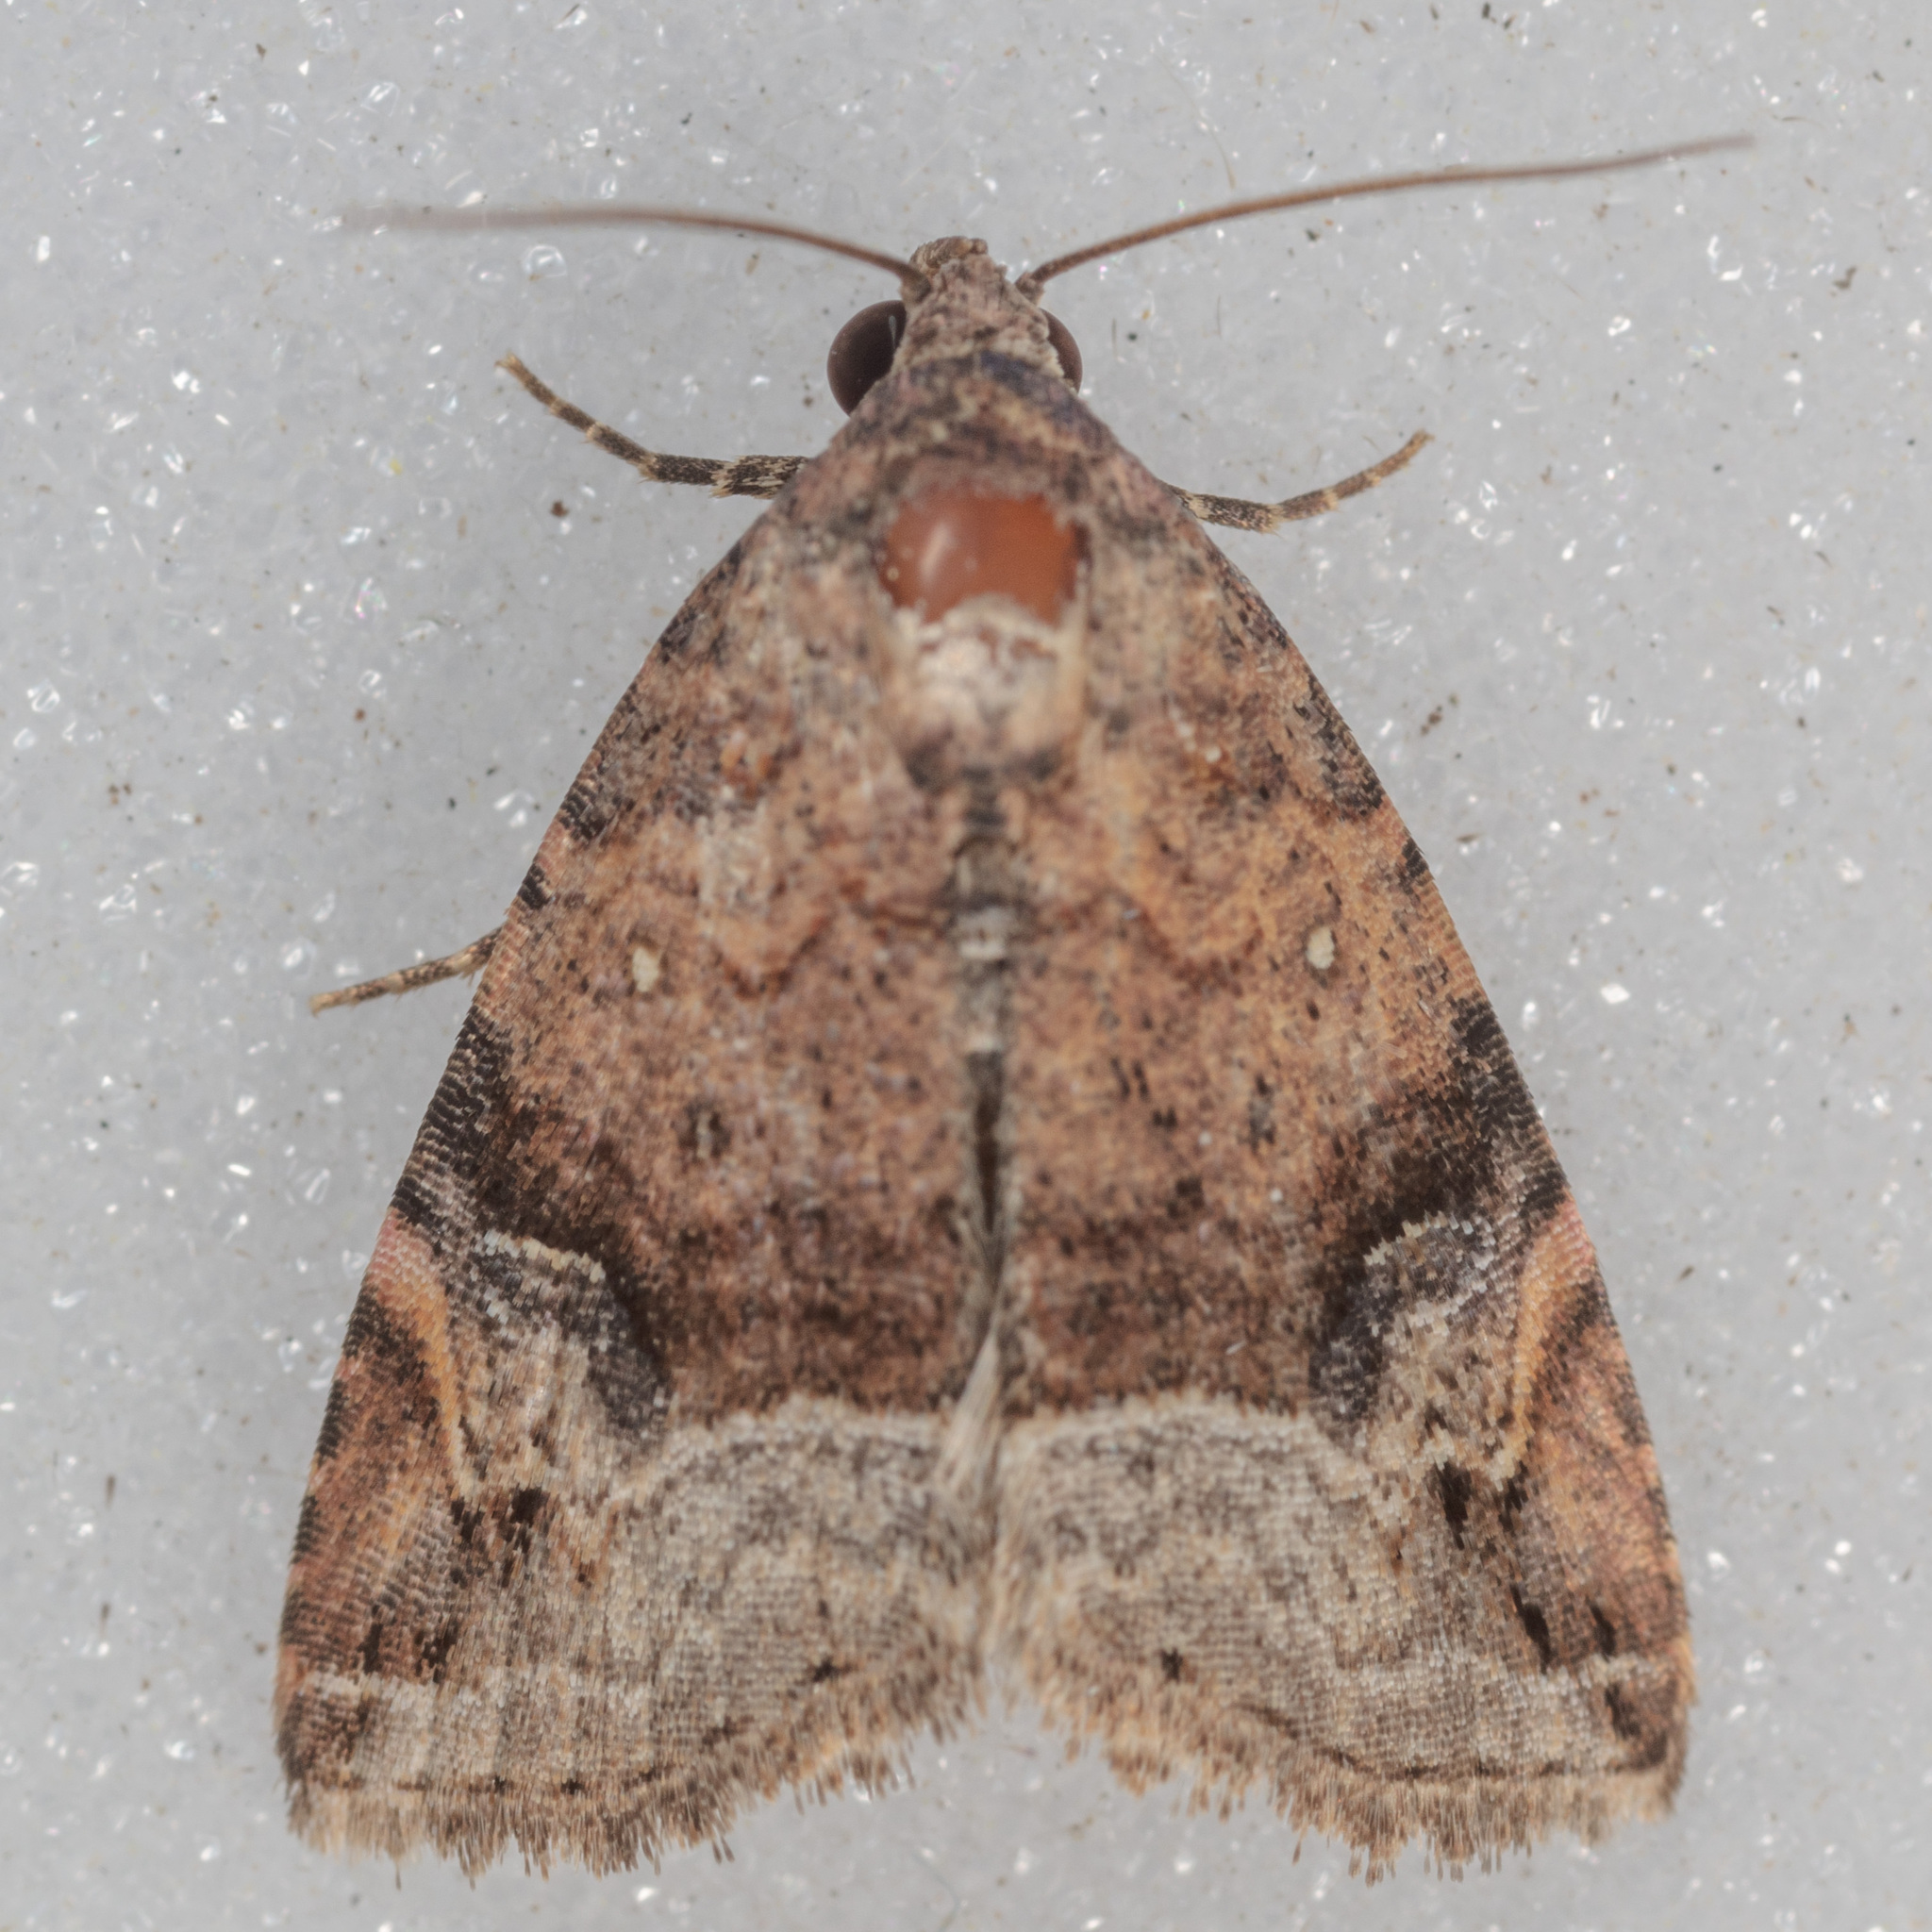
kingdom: Animalia
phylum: Arthropoda
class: Insecta
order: Lepidoptera
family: Noctuidae
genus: Ozarba
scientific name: Ozarba aeria
